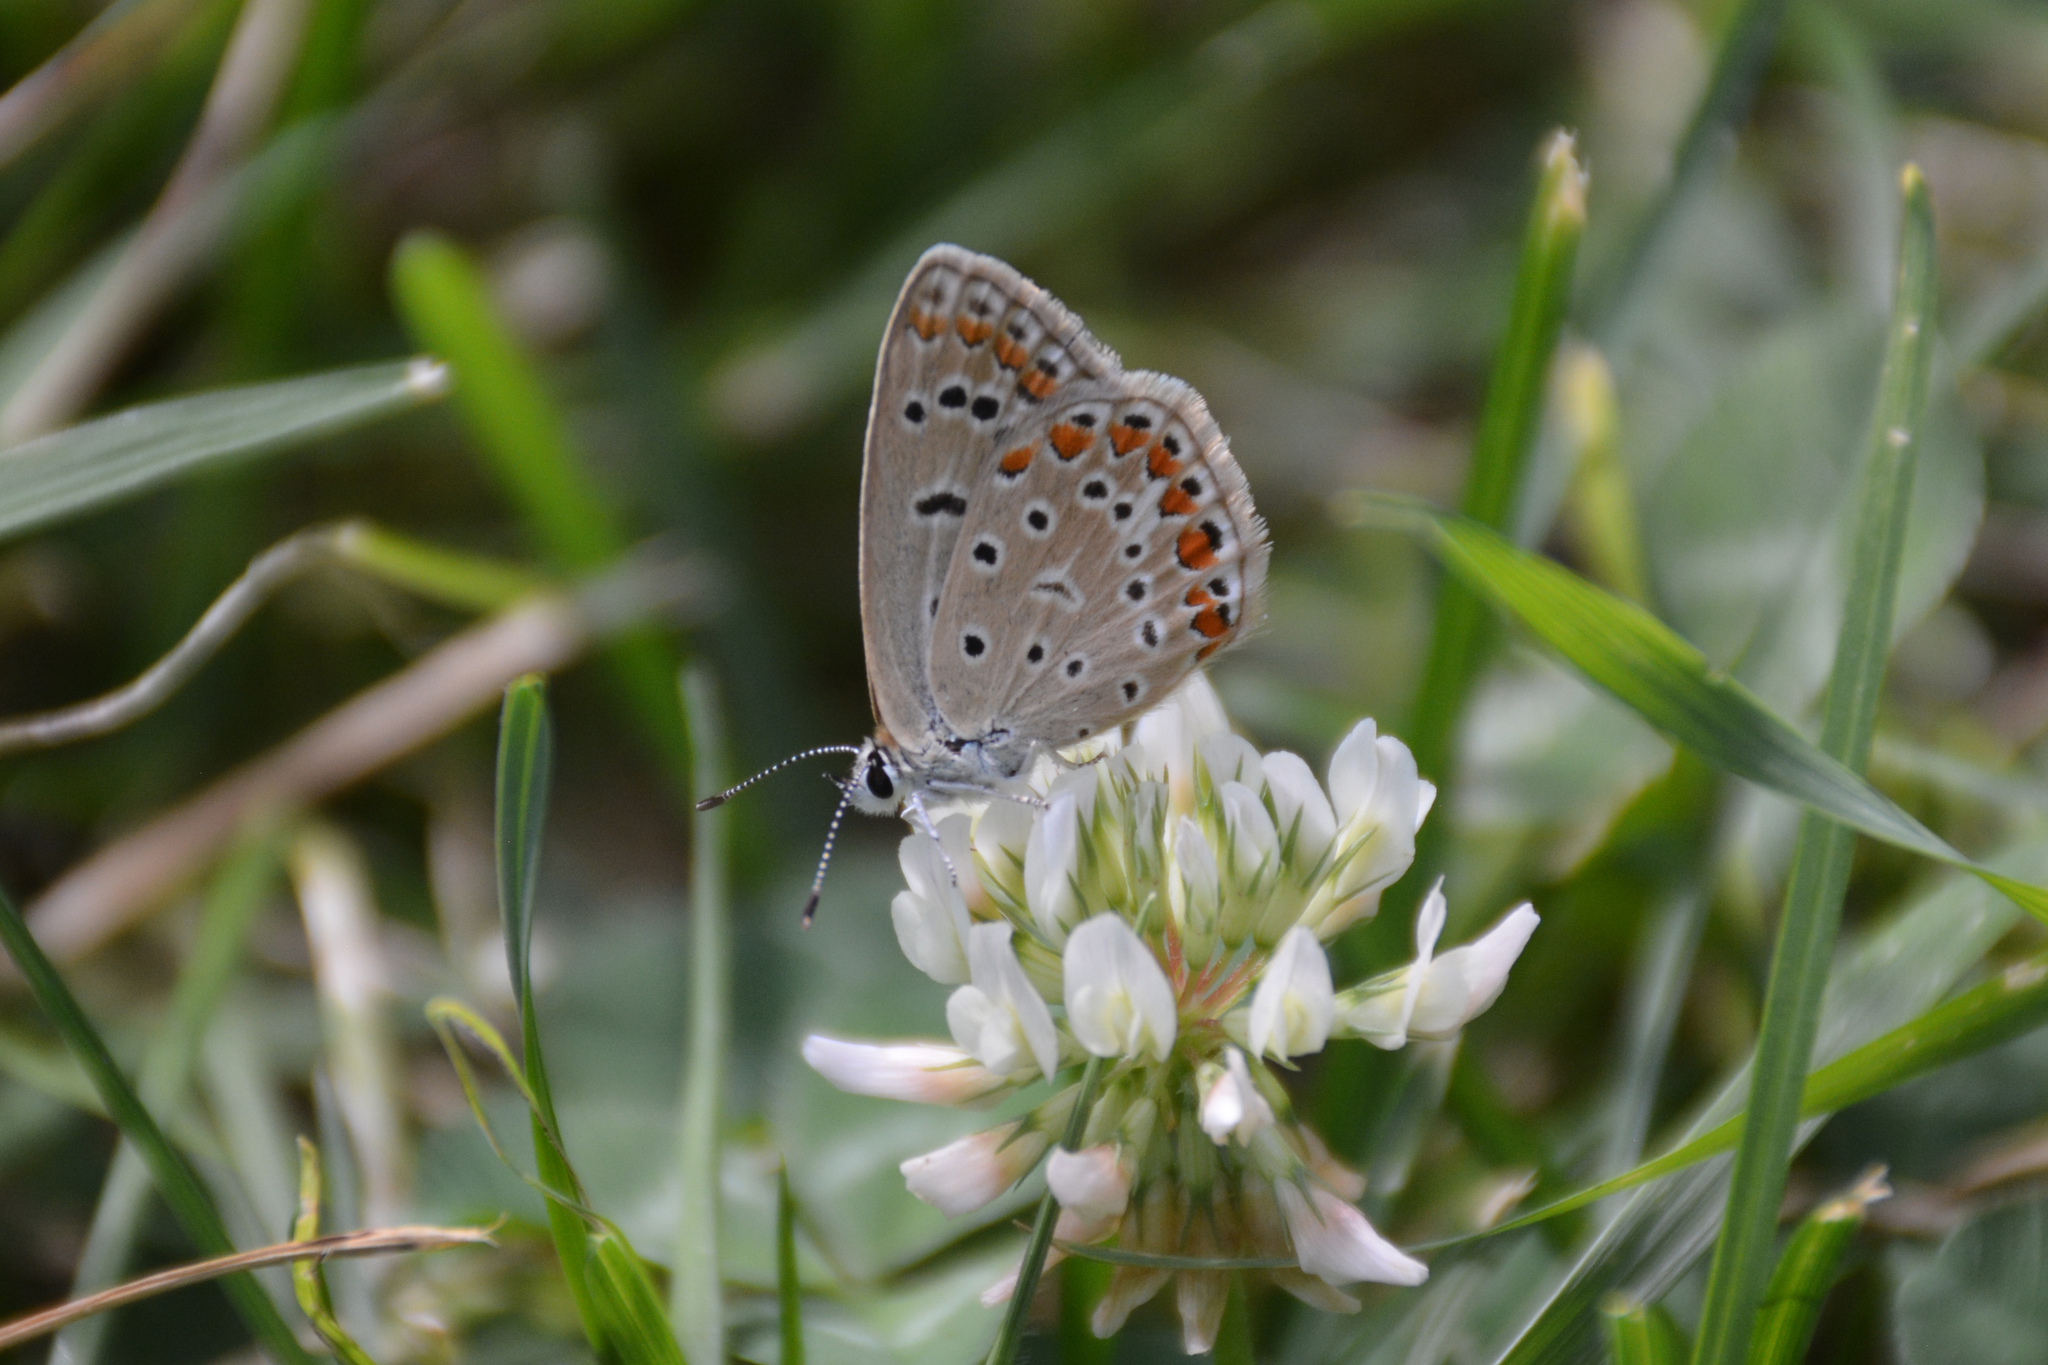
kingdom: Animalia
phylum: Arthropoda
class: Insecta
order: Lepidoptera
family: Lycaenidae
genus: Polyommatus
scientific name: Polyommatus icarus
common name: Common blue
